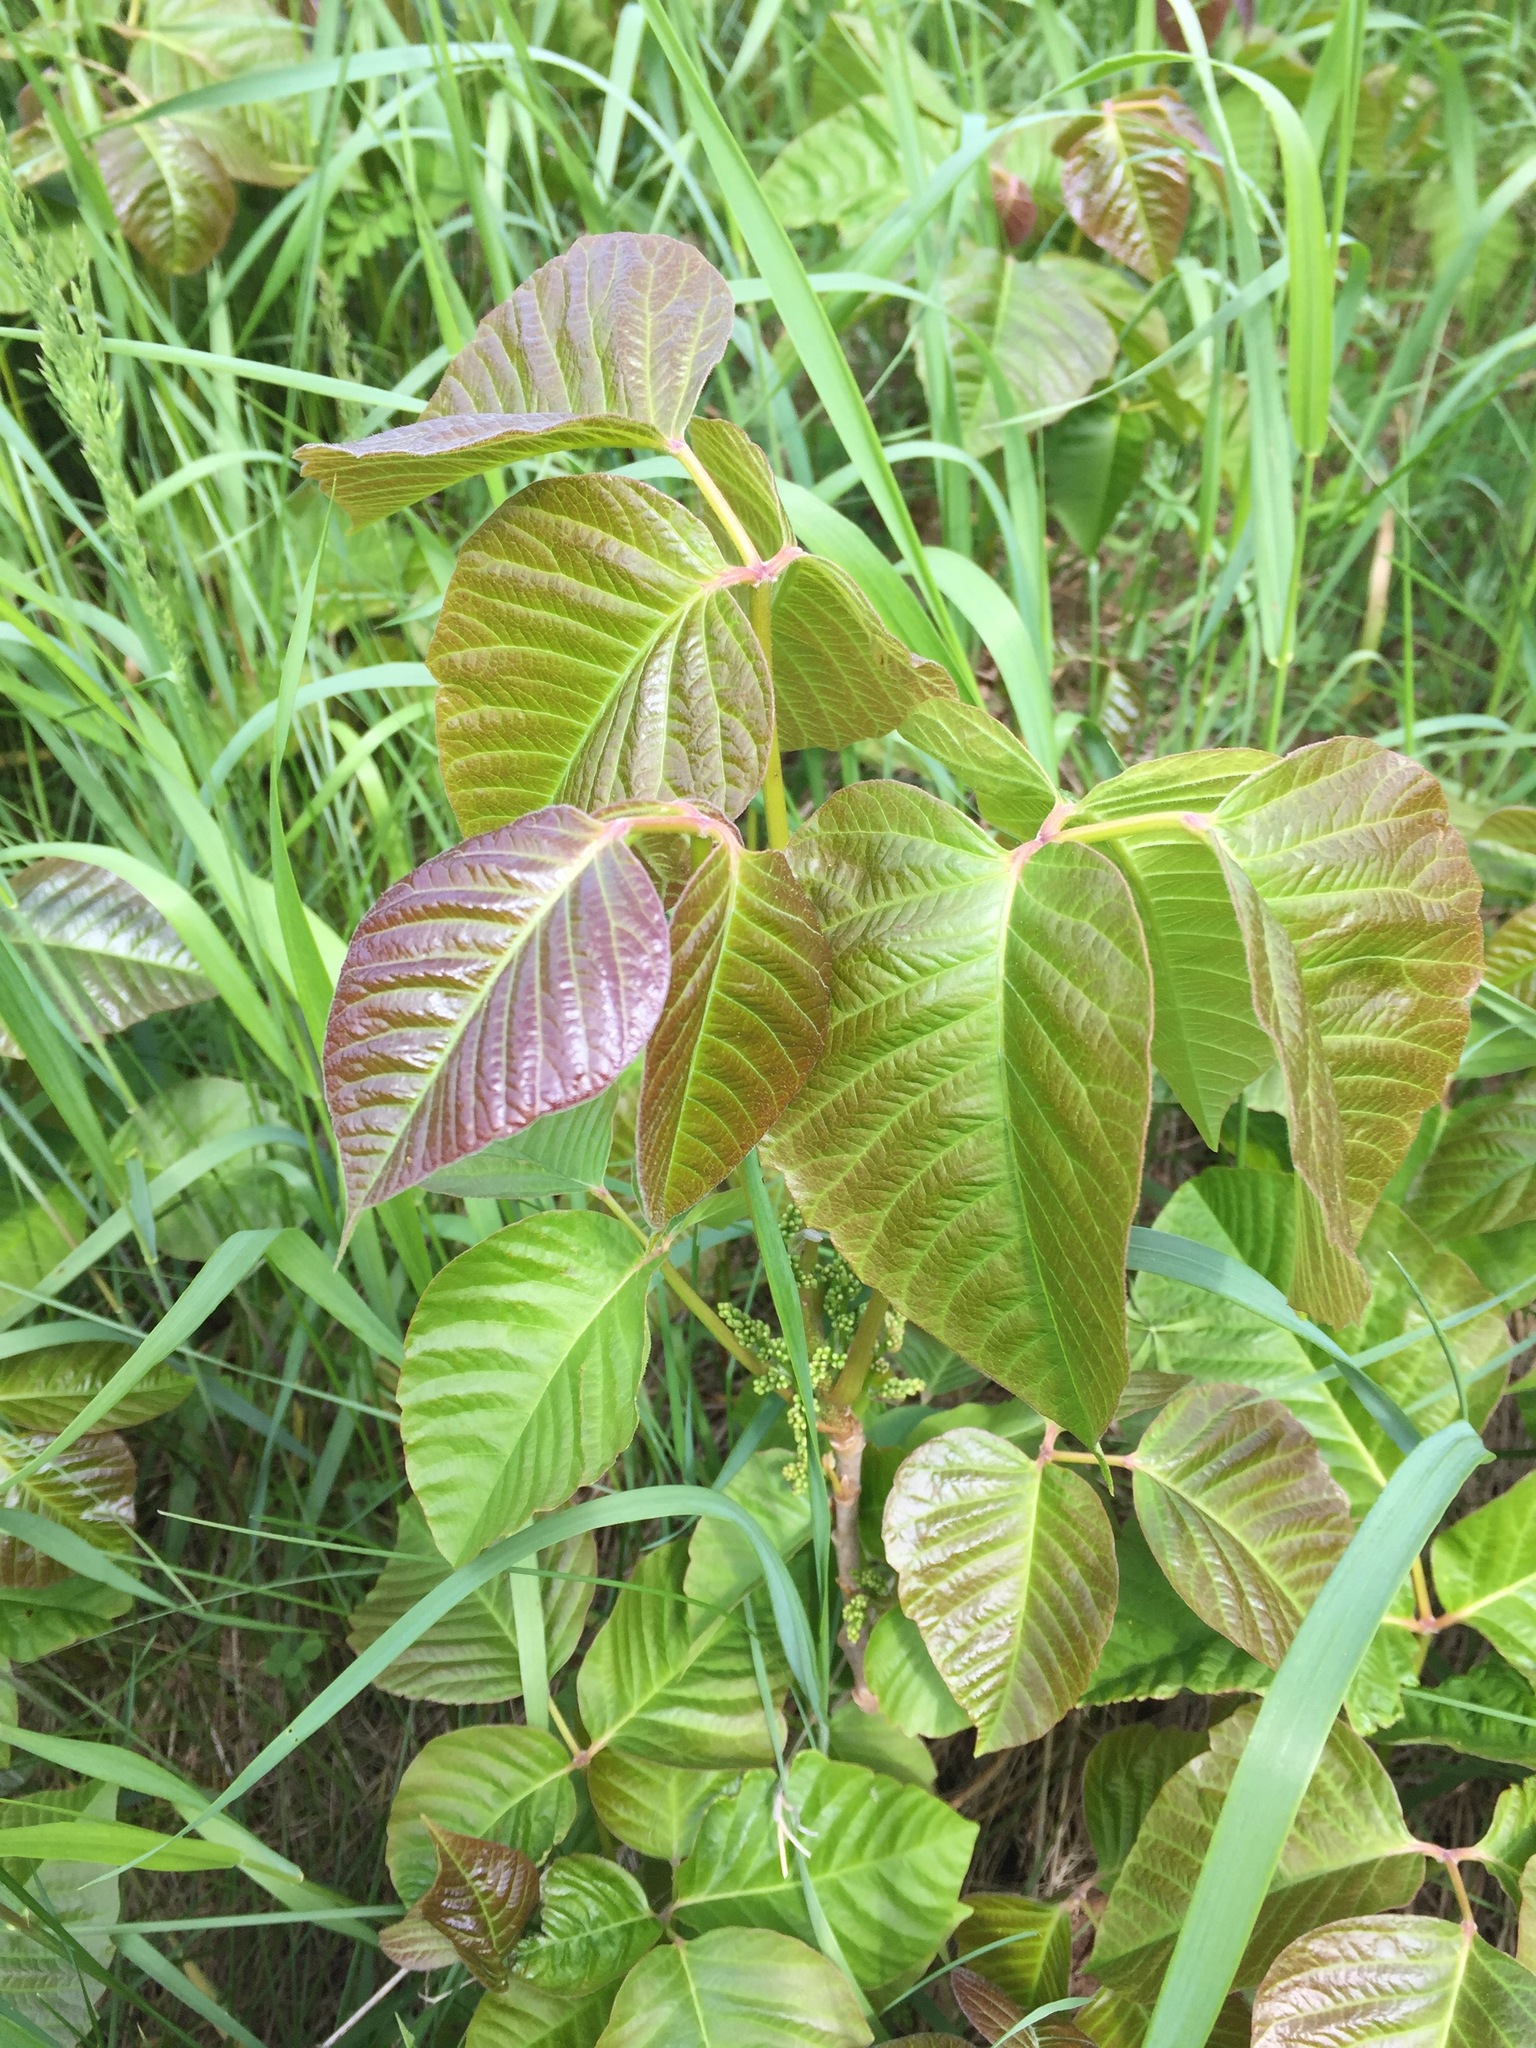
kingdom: Plantae
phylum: Tracheophyta
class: Magnoliopsida
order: Sapindales
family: Anacardiaceae
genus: Toxicodendron
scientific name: Toxicodendron radicans
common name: Poison ivy
